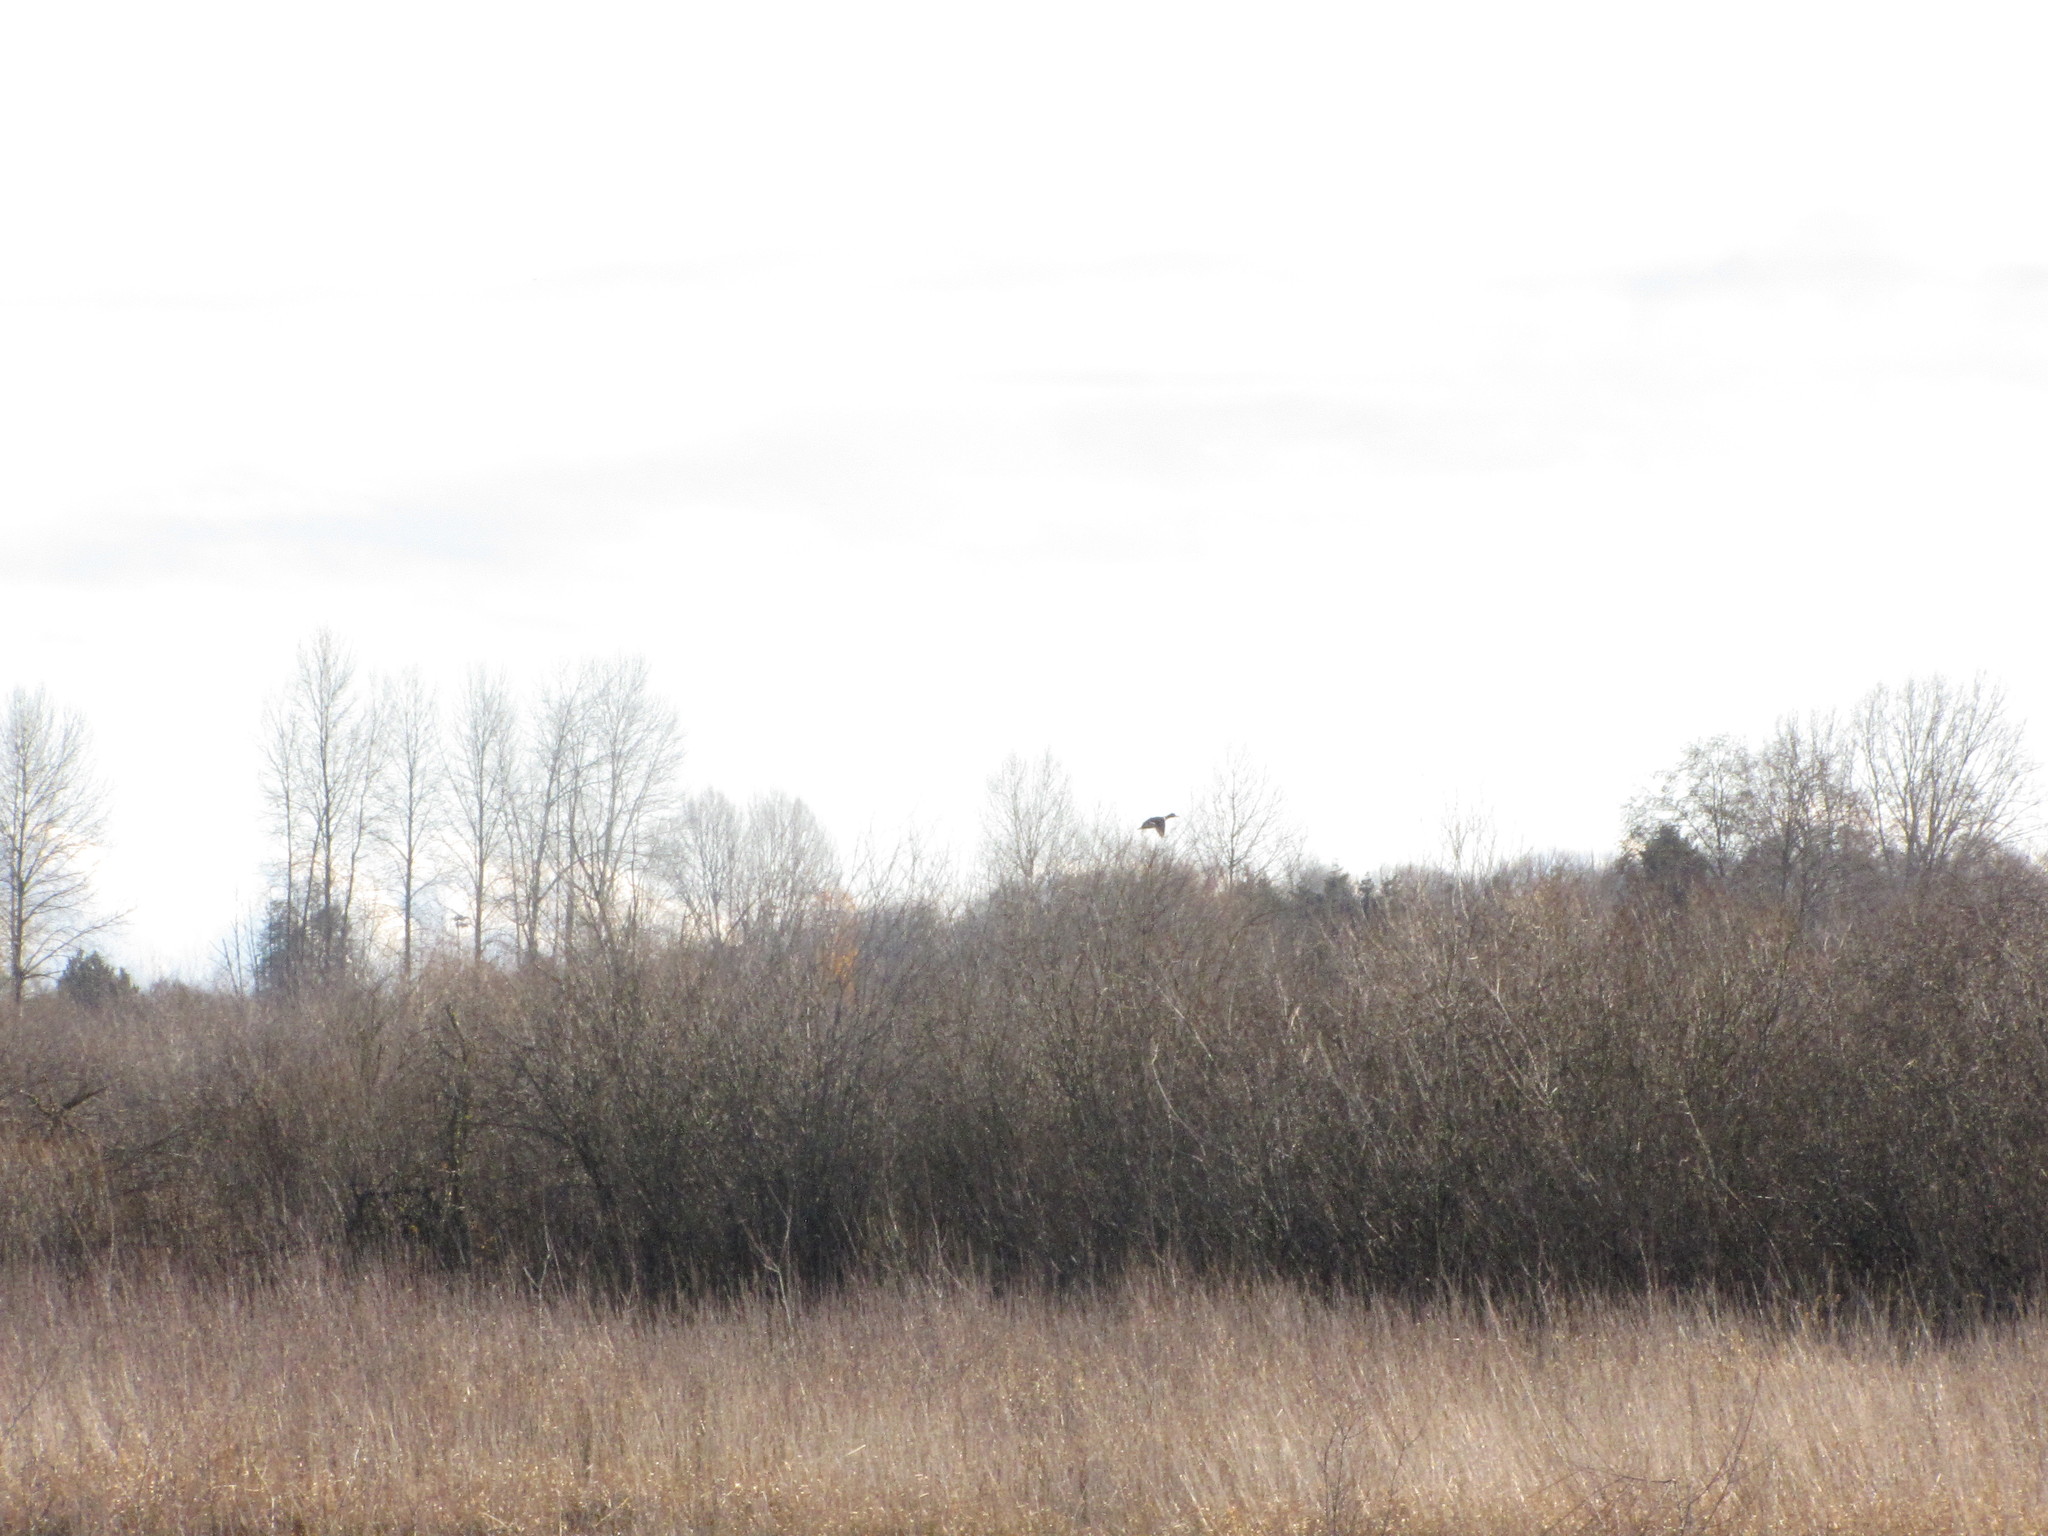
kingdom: Animalia
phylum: Chordata
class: Aves
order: Anseriformes
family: Anatidae
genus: Anas
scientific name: Anas platyrhynchos
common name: Mallard
